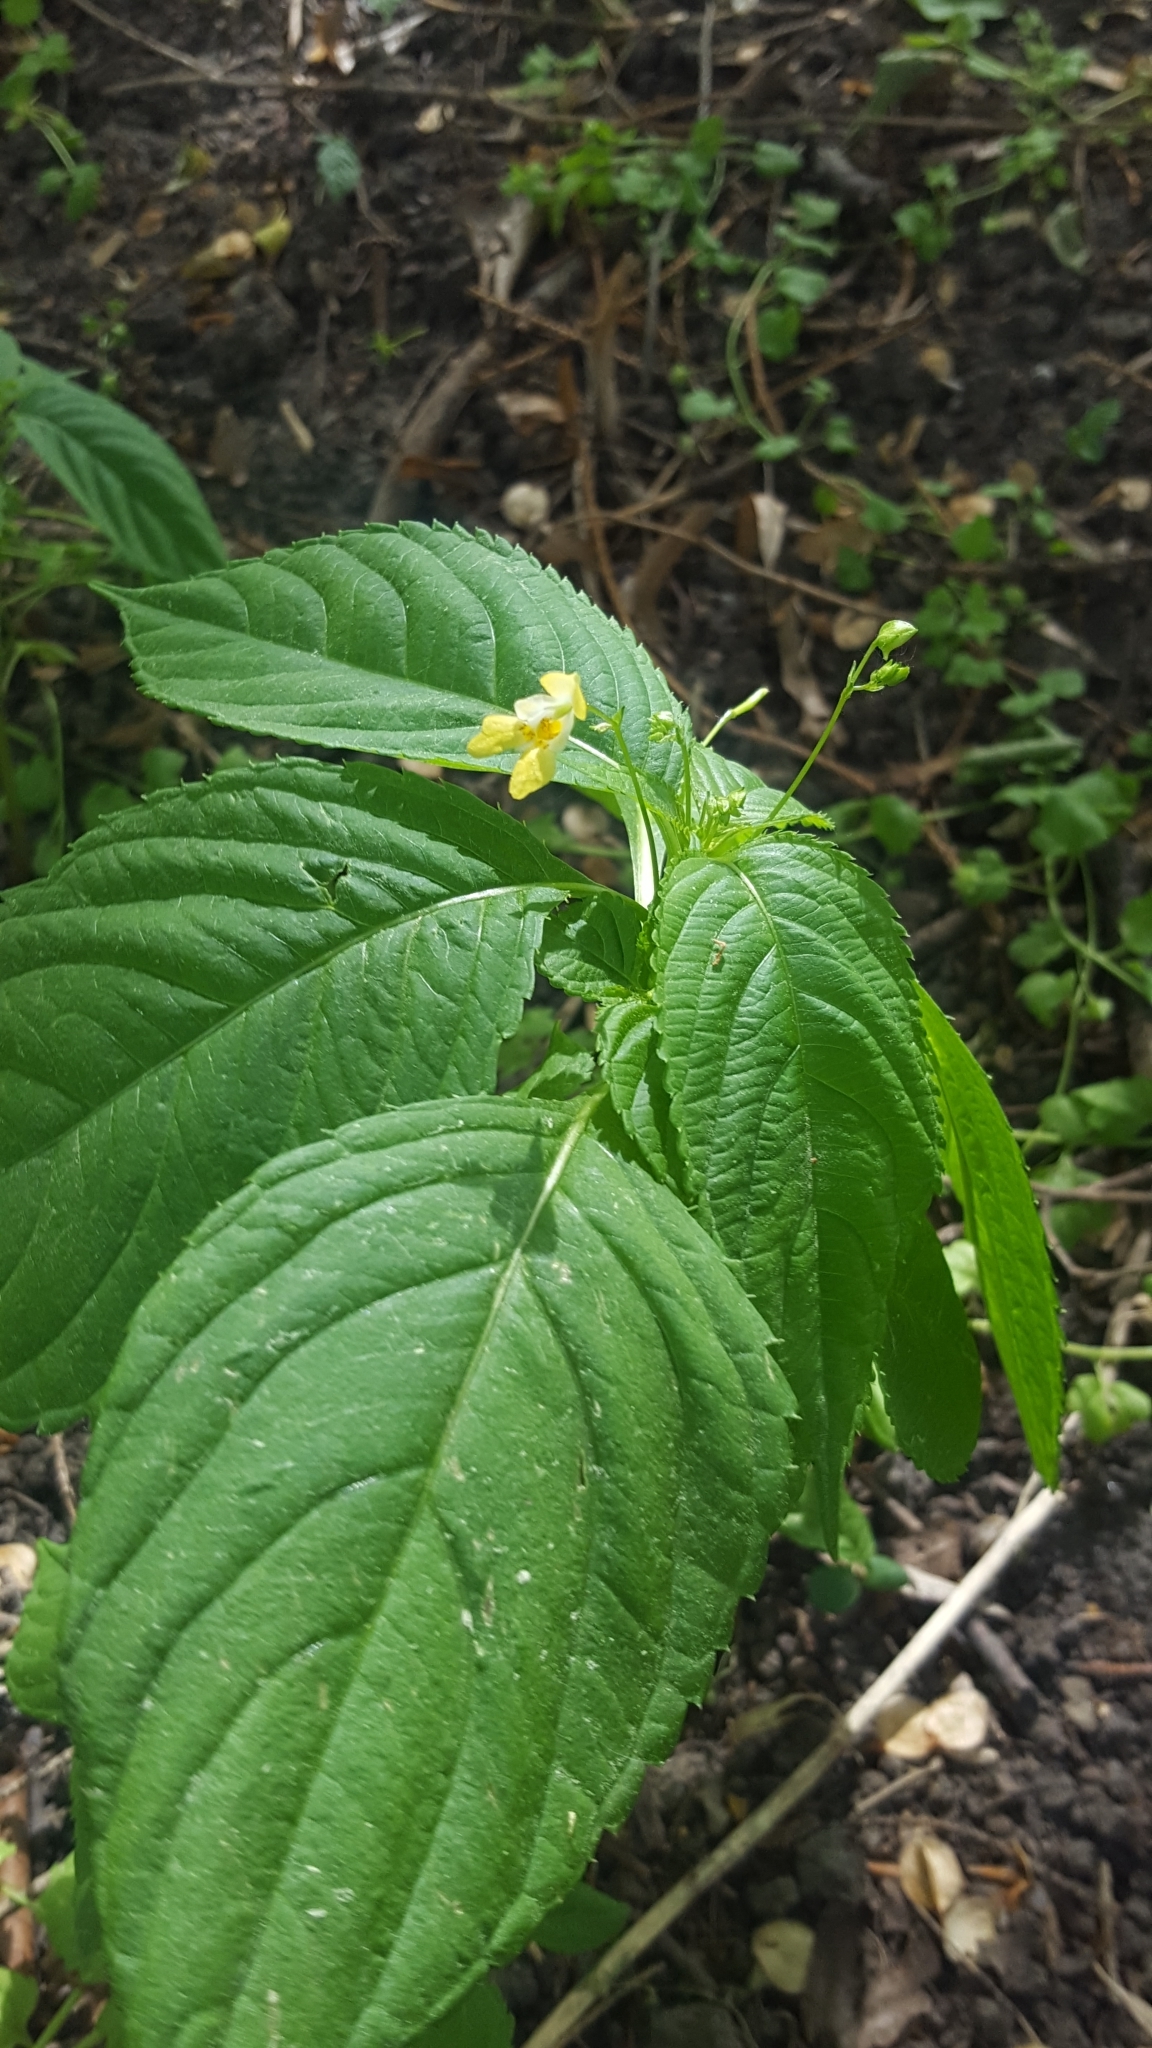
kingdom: Plantae
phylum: Tracheophyta
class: Magnoliopsida
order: Ericales
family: Balsaminaceae
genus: Impatiens
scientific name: Impatiens parviflora
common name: Small balsam
